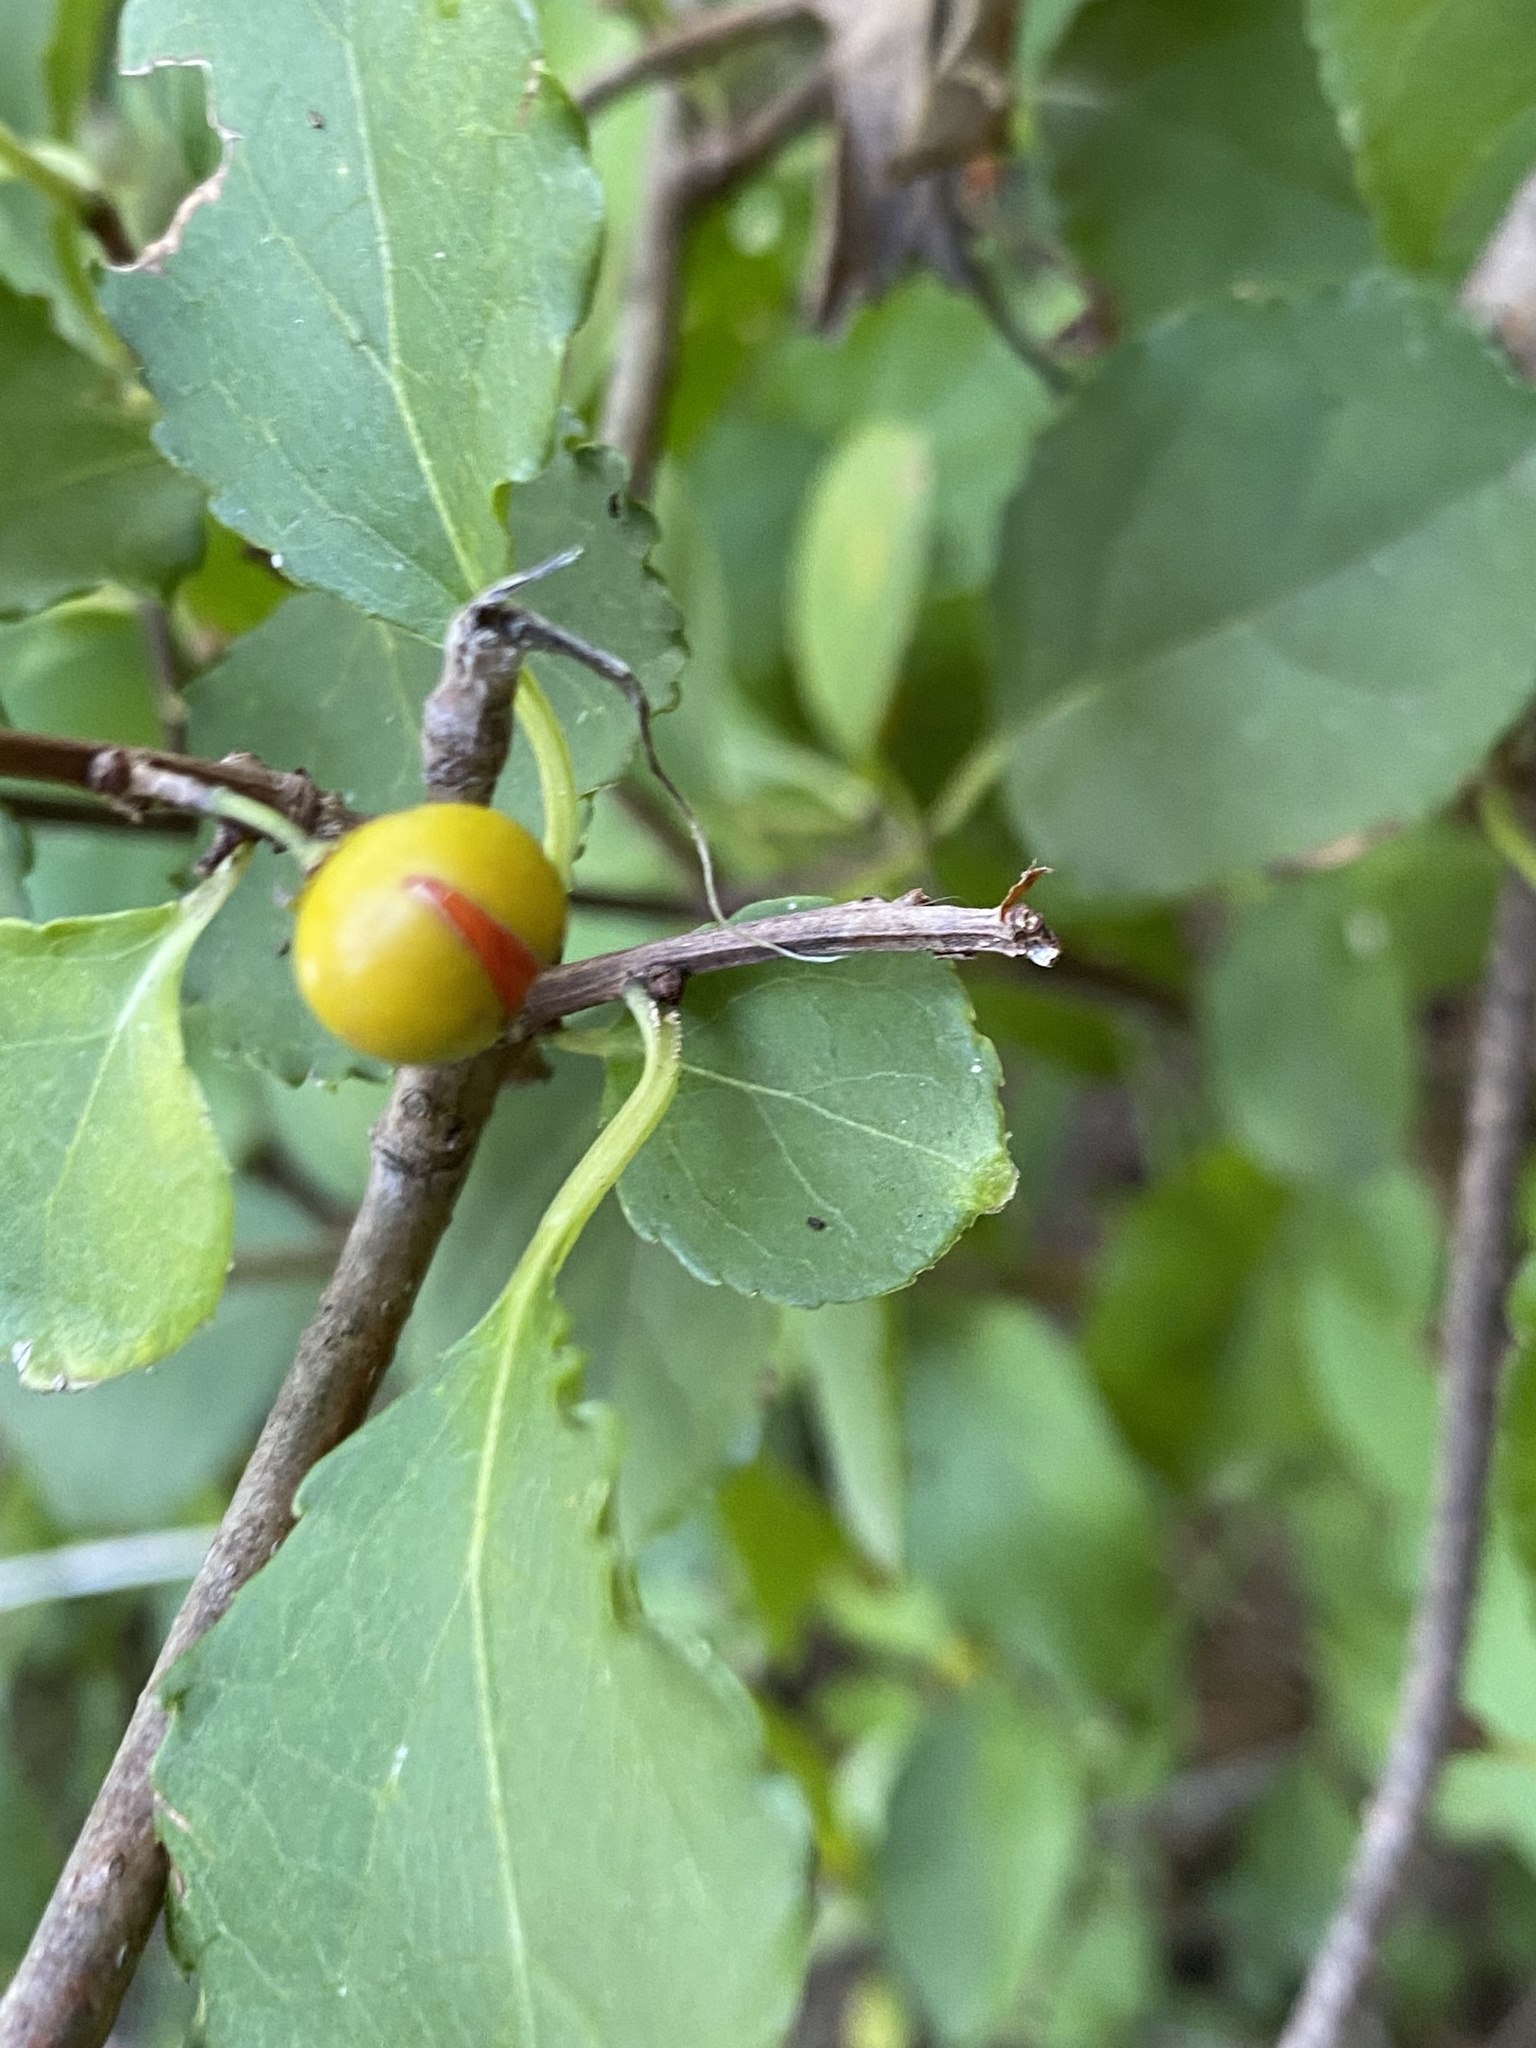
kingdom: Plantae
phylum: Tracheophyta
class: Magnoliopsida
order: Celastrales
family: Celastraceae
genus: Celastrus
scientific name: Celastrus orbiculatus
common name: Oriental bittersweet
